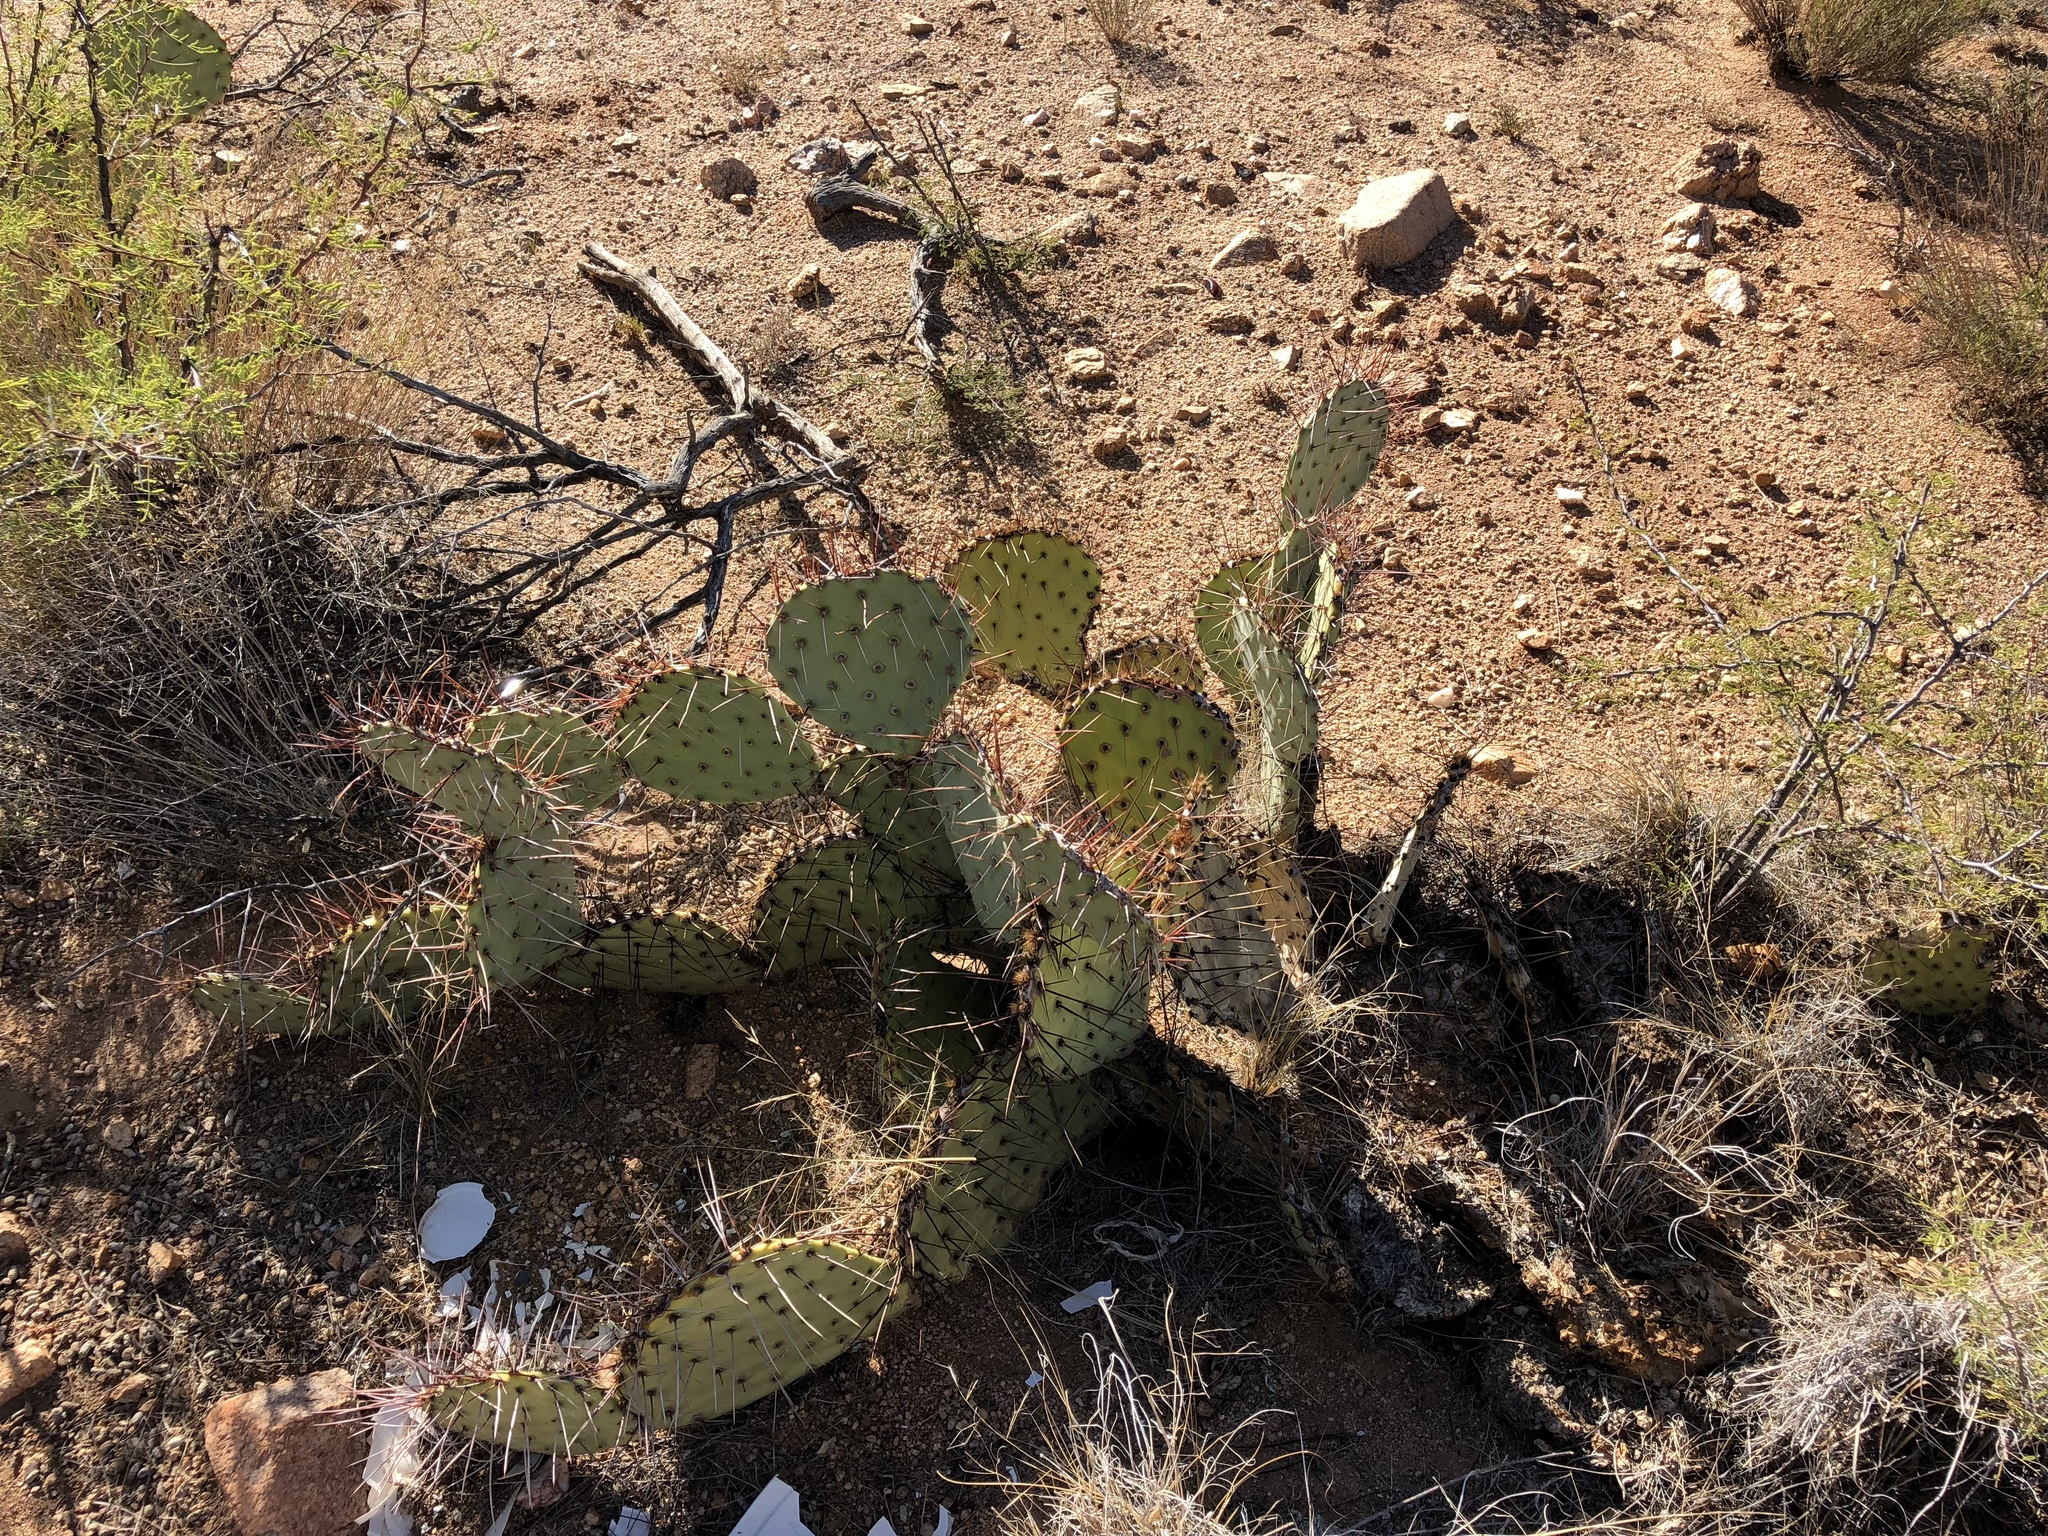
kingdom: Plantae
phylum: Tracheophyta
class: Magnoliopsida
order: Caryophyllales
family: Cactaceae
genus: Opuntia
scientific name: Opuntia phaeacantha
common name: New mexico prickly-pear
